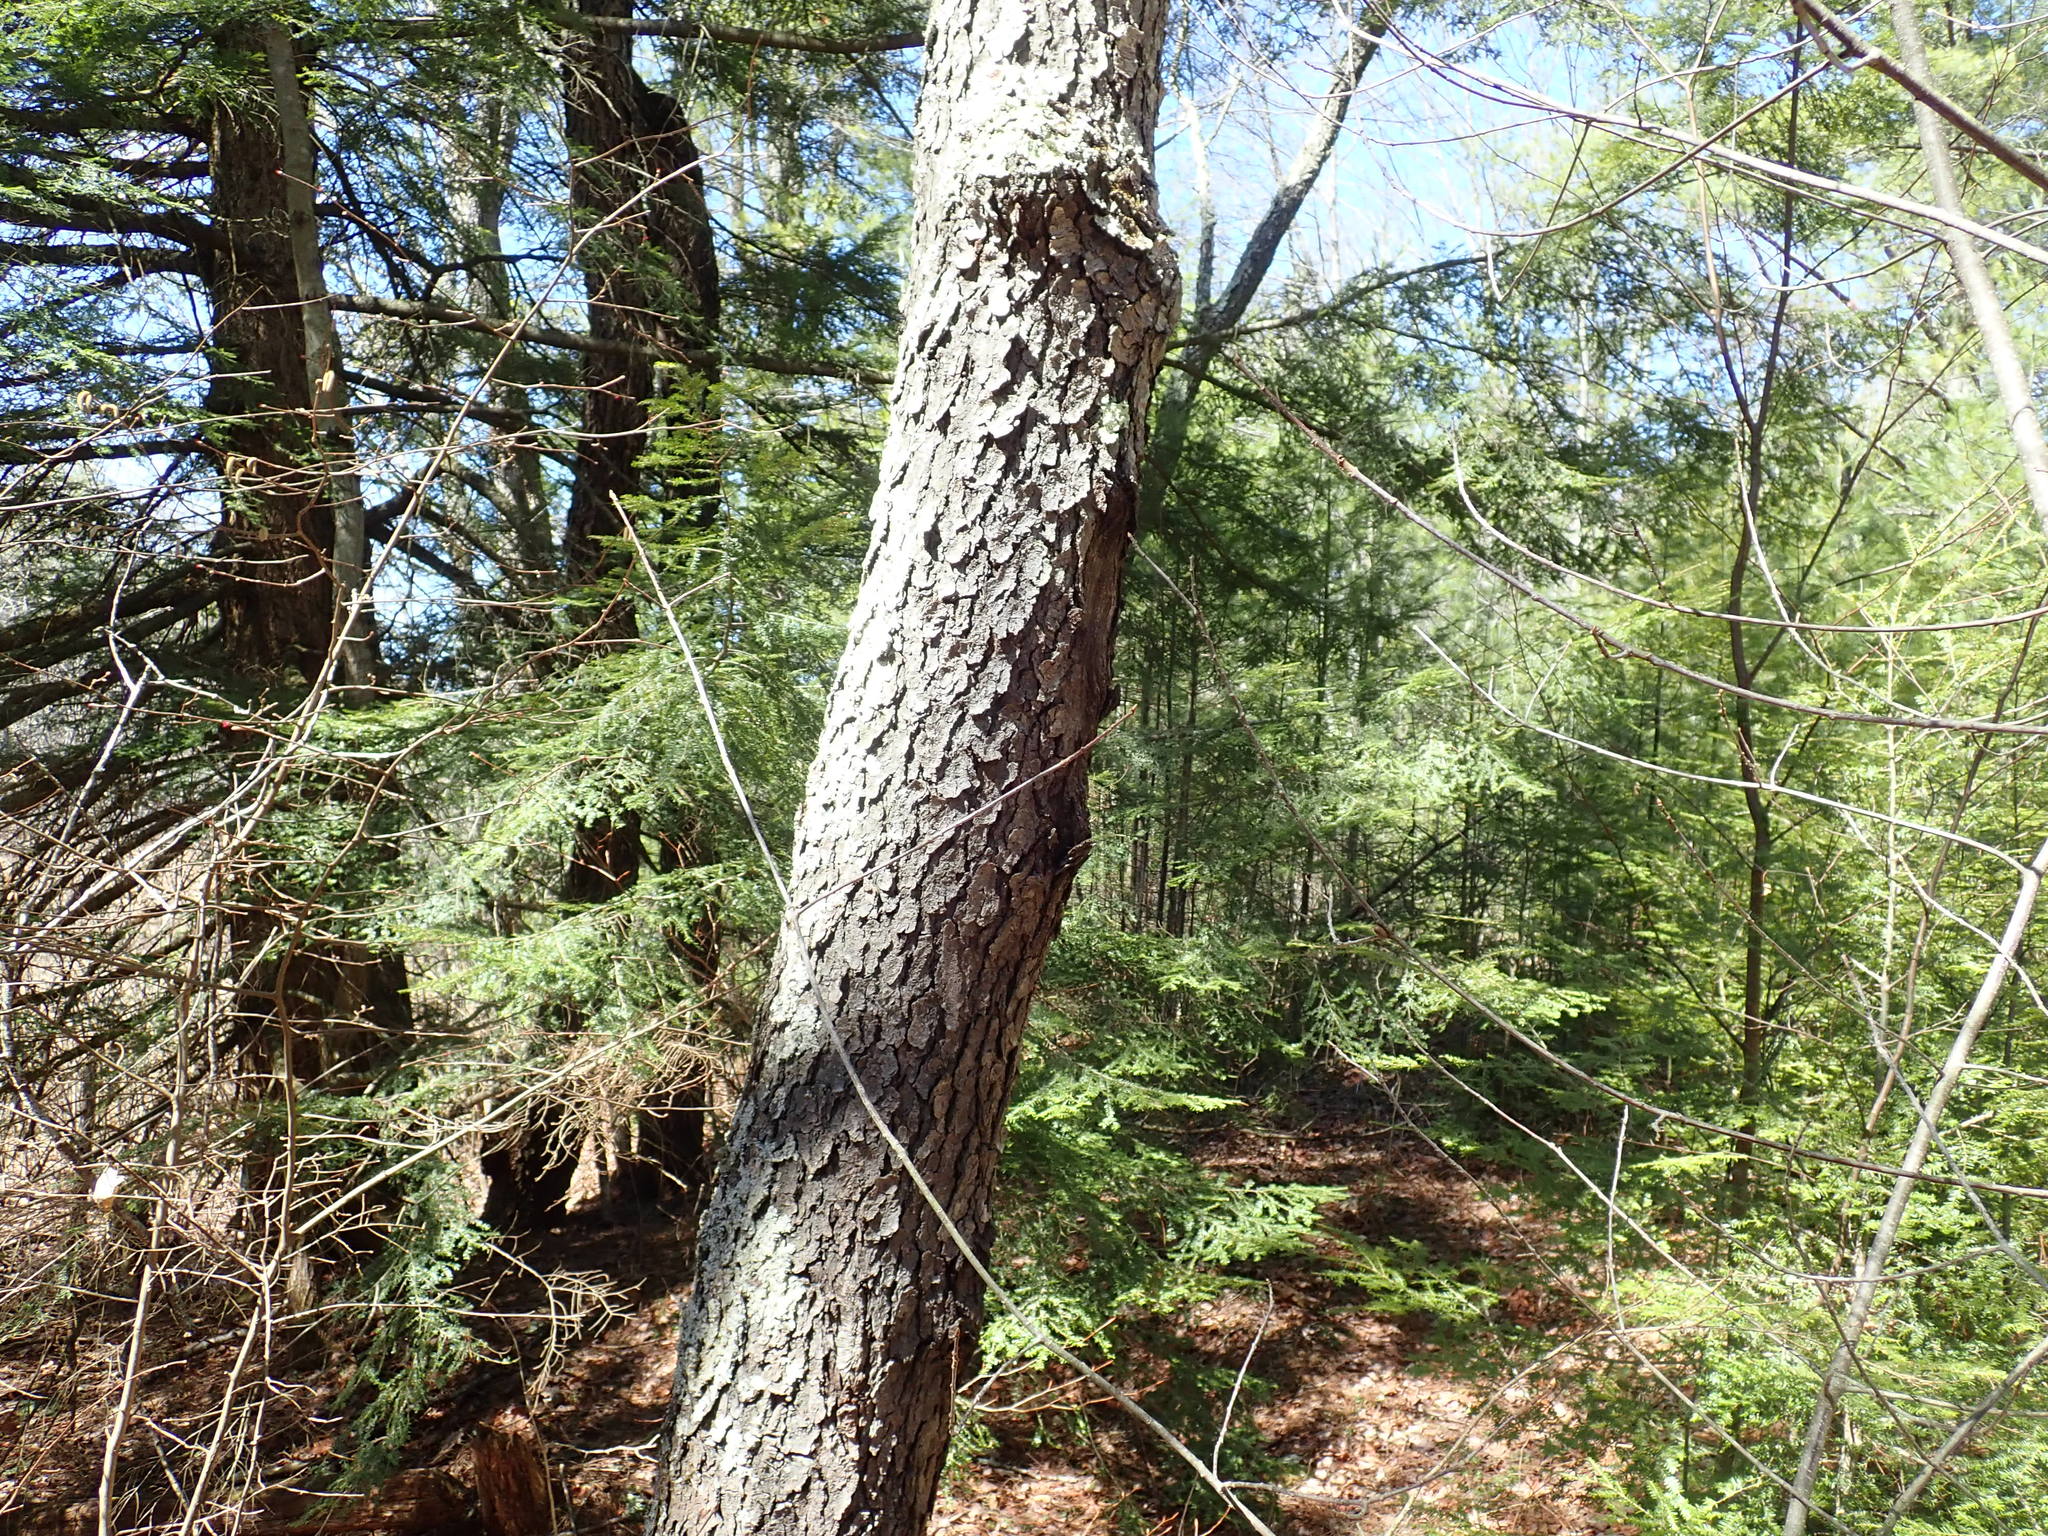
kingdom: Plantae
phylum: Tracheophyta
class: Magnoliopsida
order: Rosales
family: Rosaceae
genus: Prunus
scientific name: Prunus serotina
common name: Black cherry
